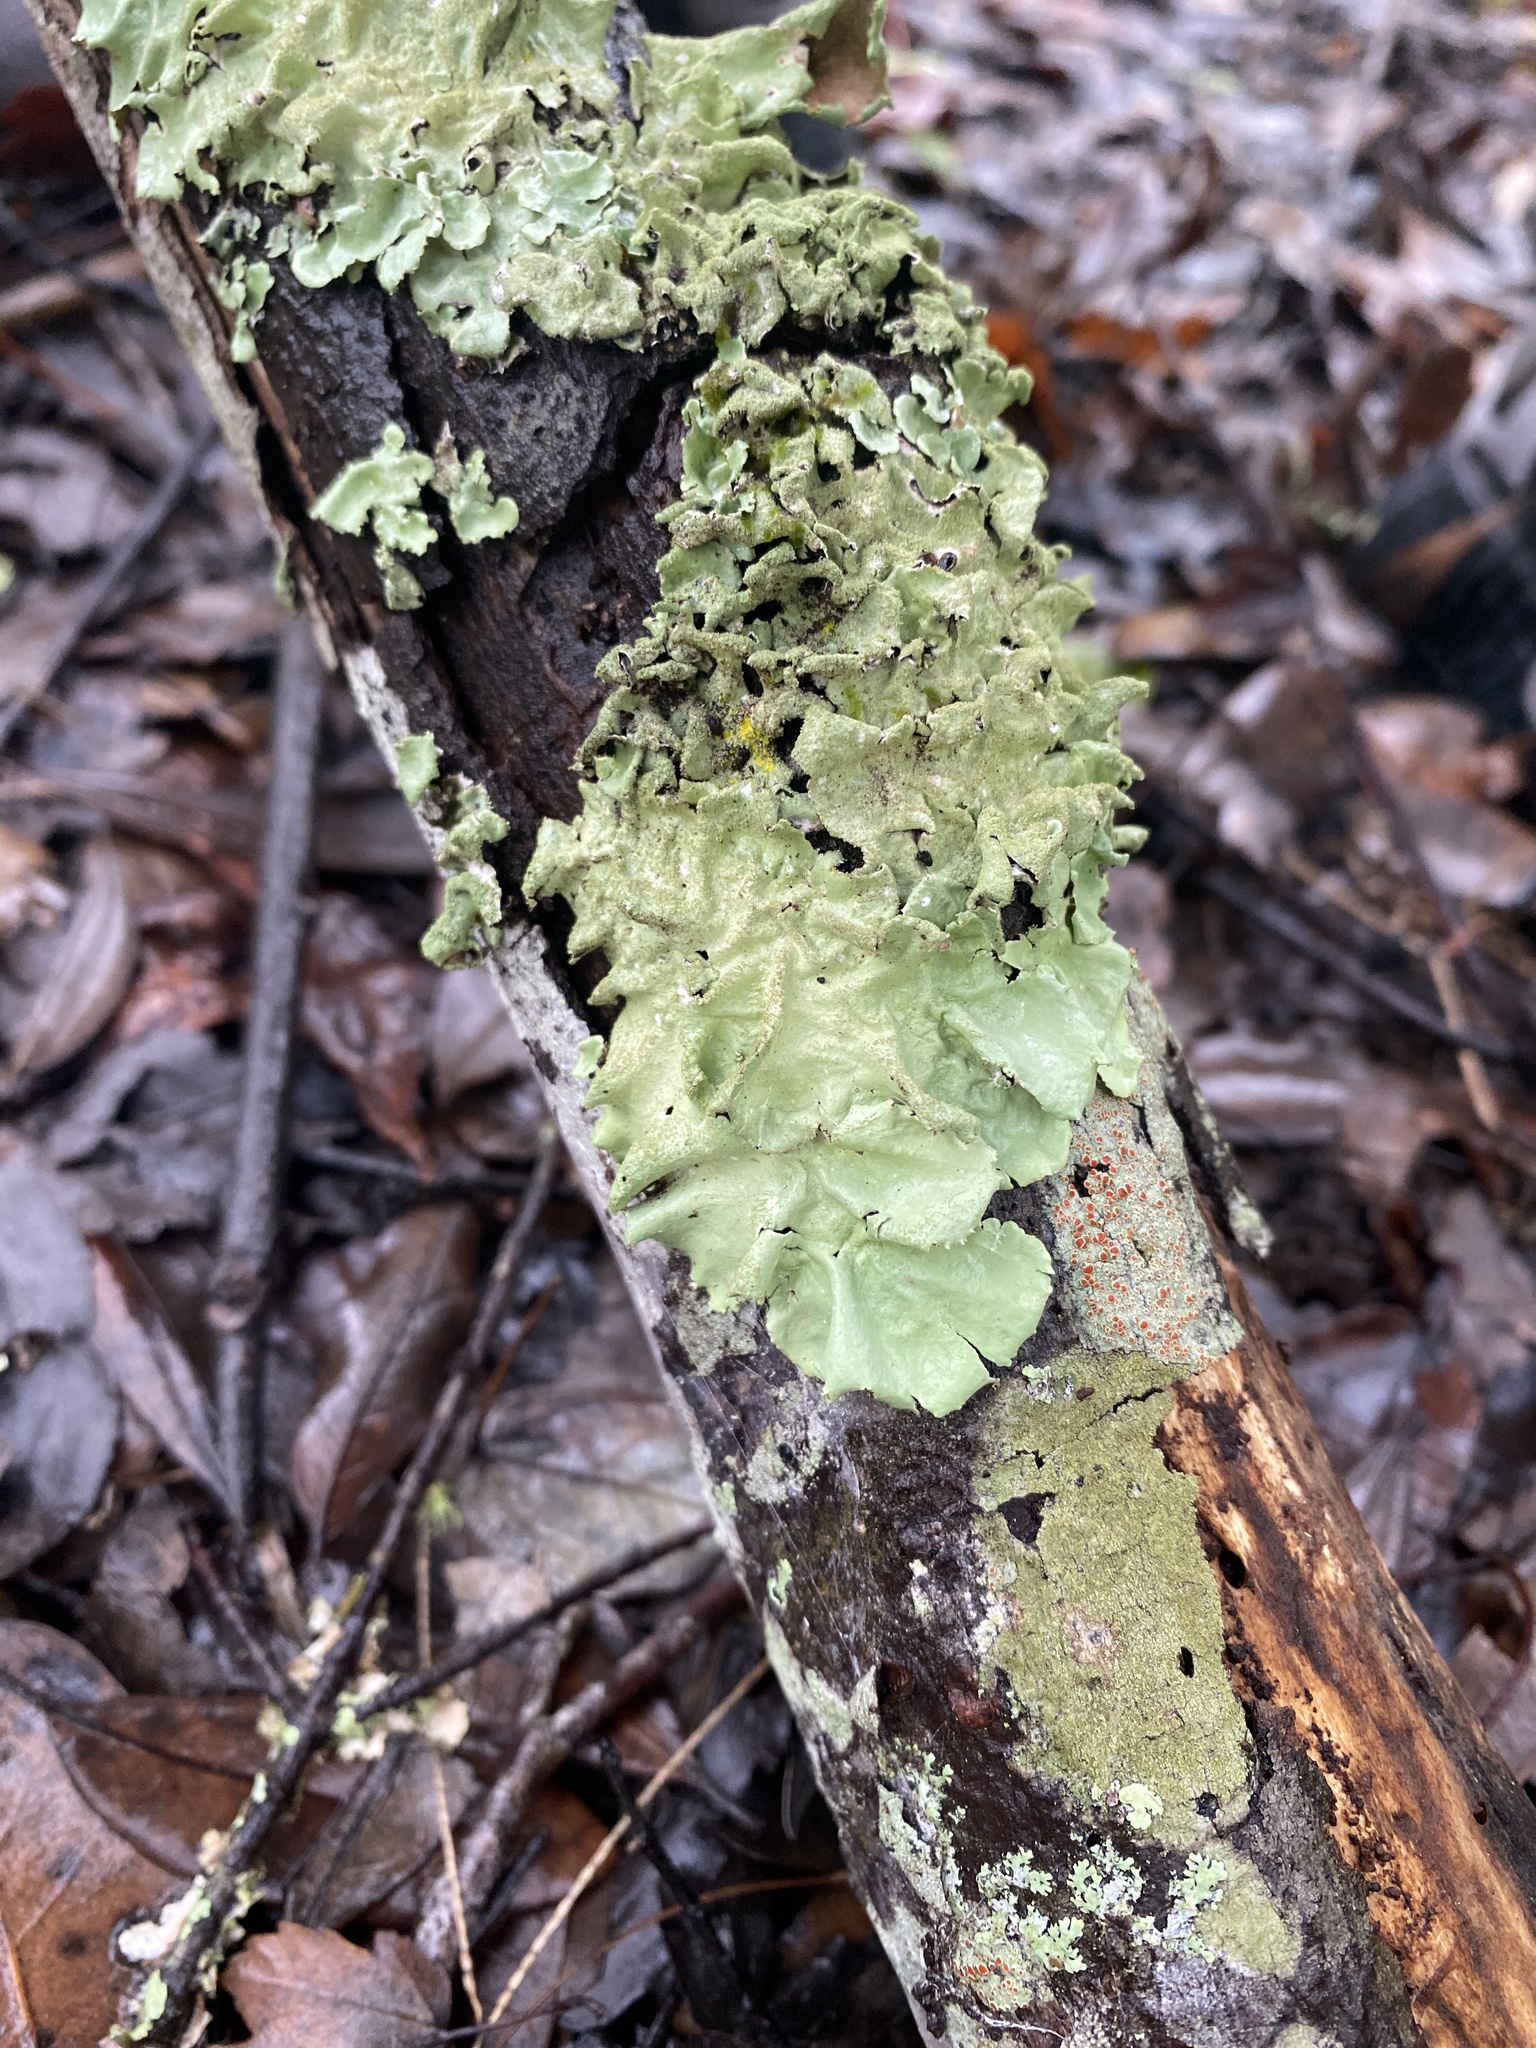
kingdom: Fungi
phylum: Ascomycota
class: Lecanoromycetes
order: Lecanorales
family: Parmeliaceae
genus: Parmotrema
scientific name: Parmotrema tinctorum
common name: Old gray ruffles
